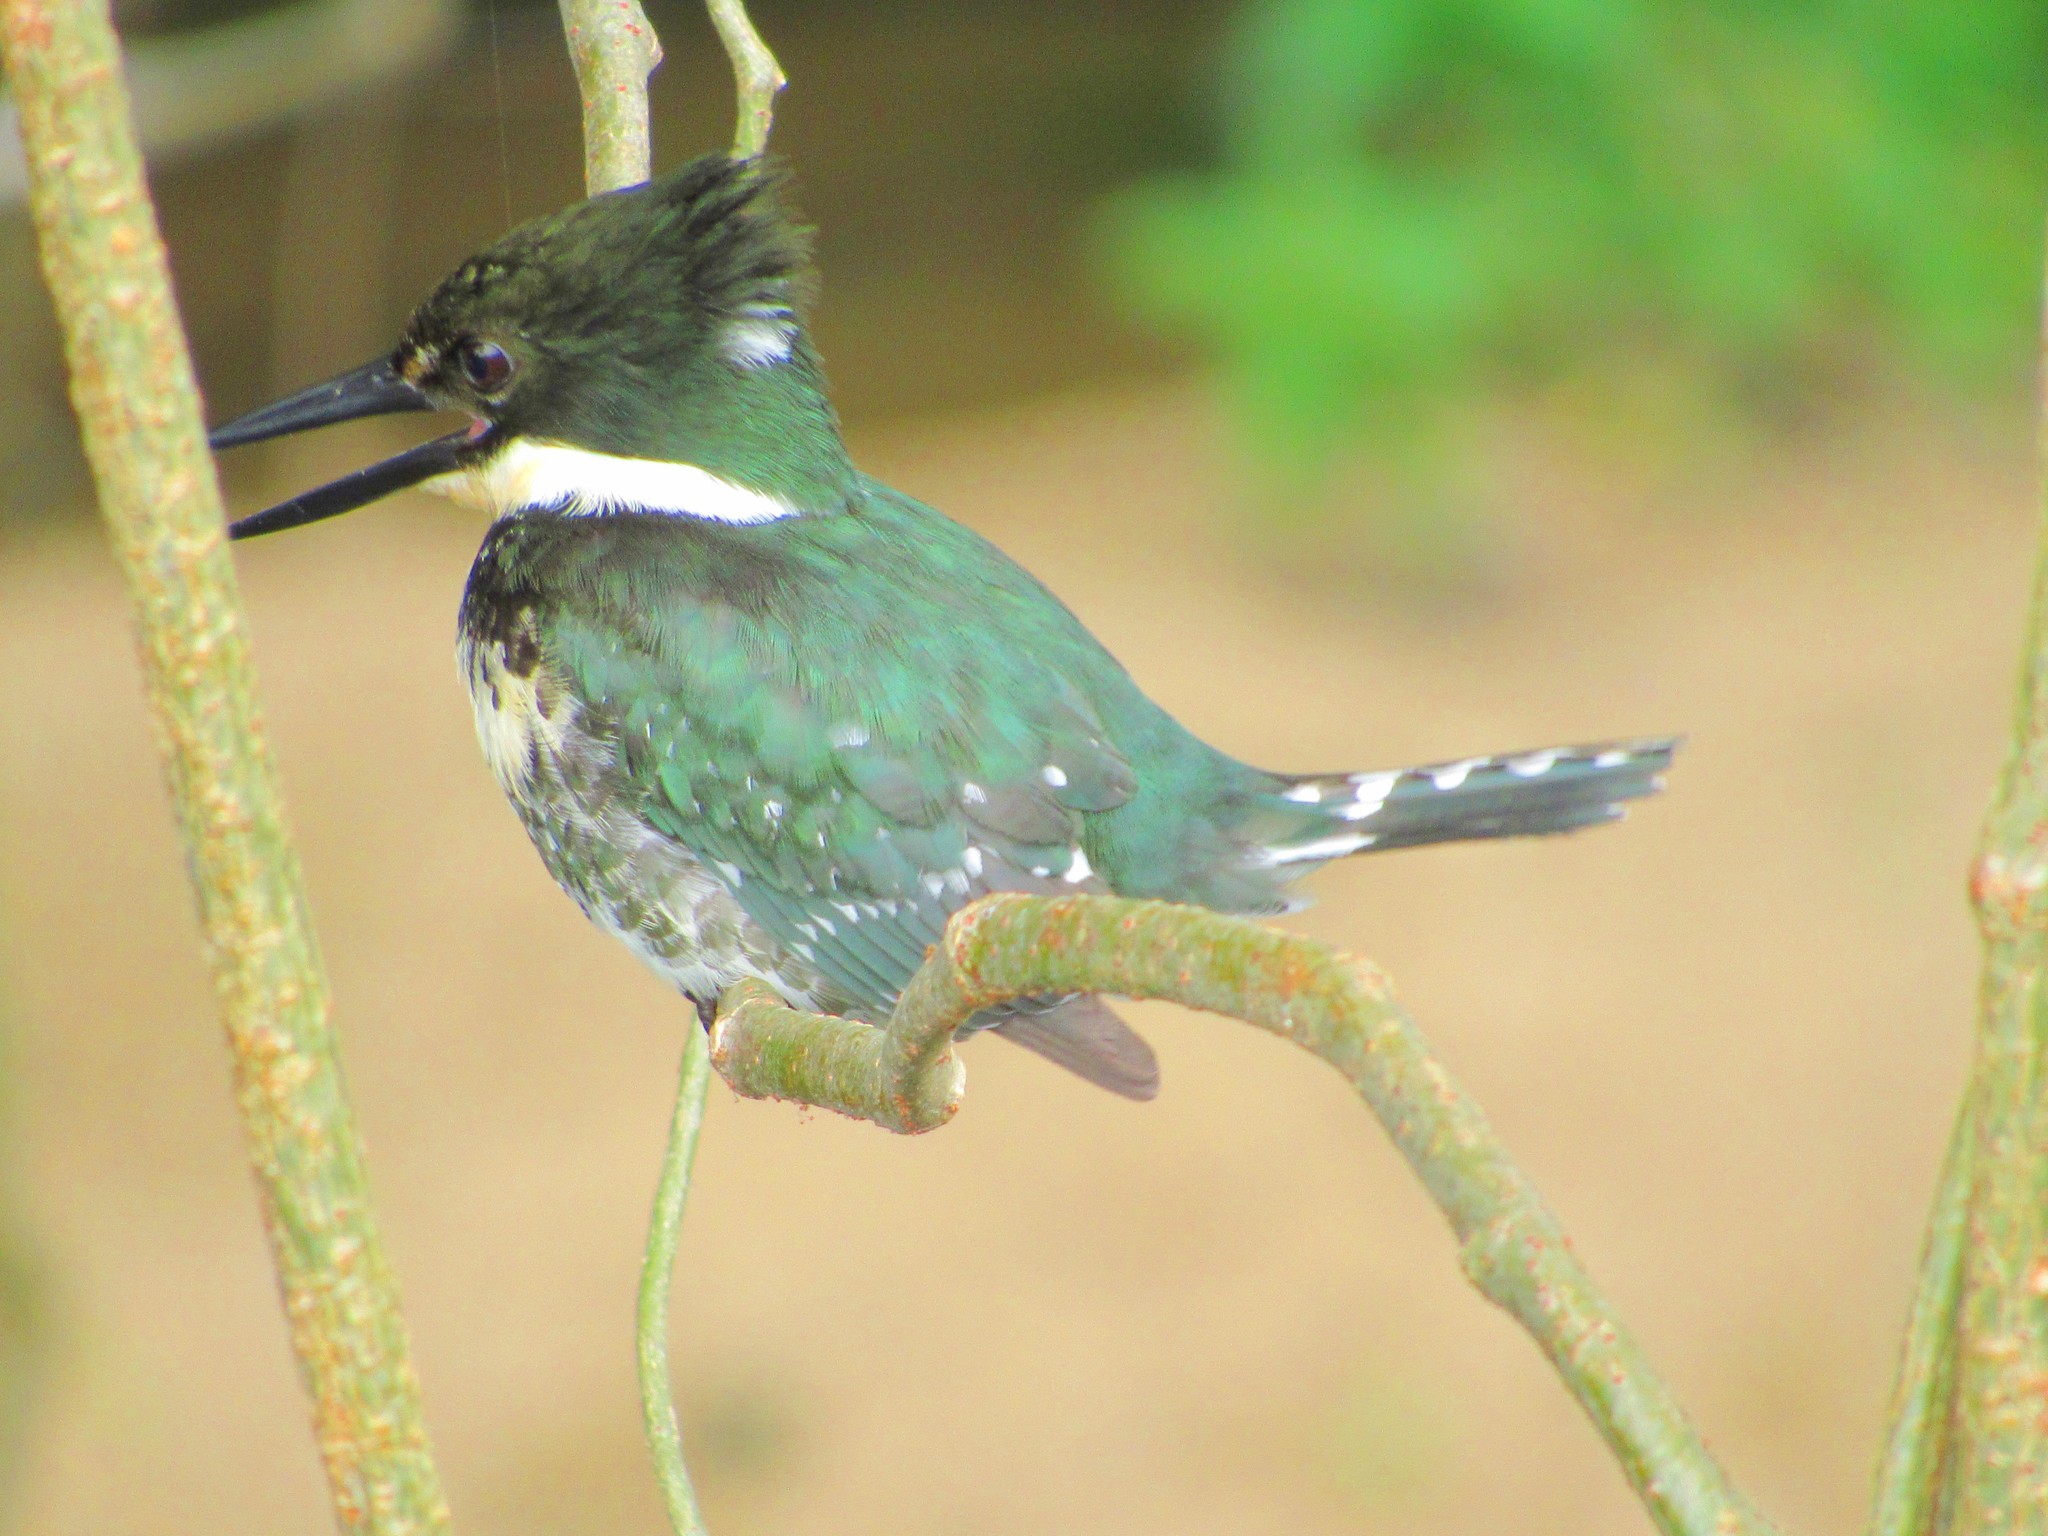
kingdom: Animalia
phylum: Chordata
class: Aves
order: Coraciiformes
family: Alcedinidae
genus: Chloroceryle
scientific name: Chloroceryle americana
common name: Green kingfisher
